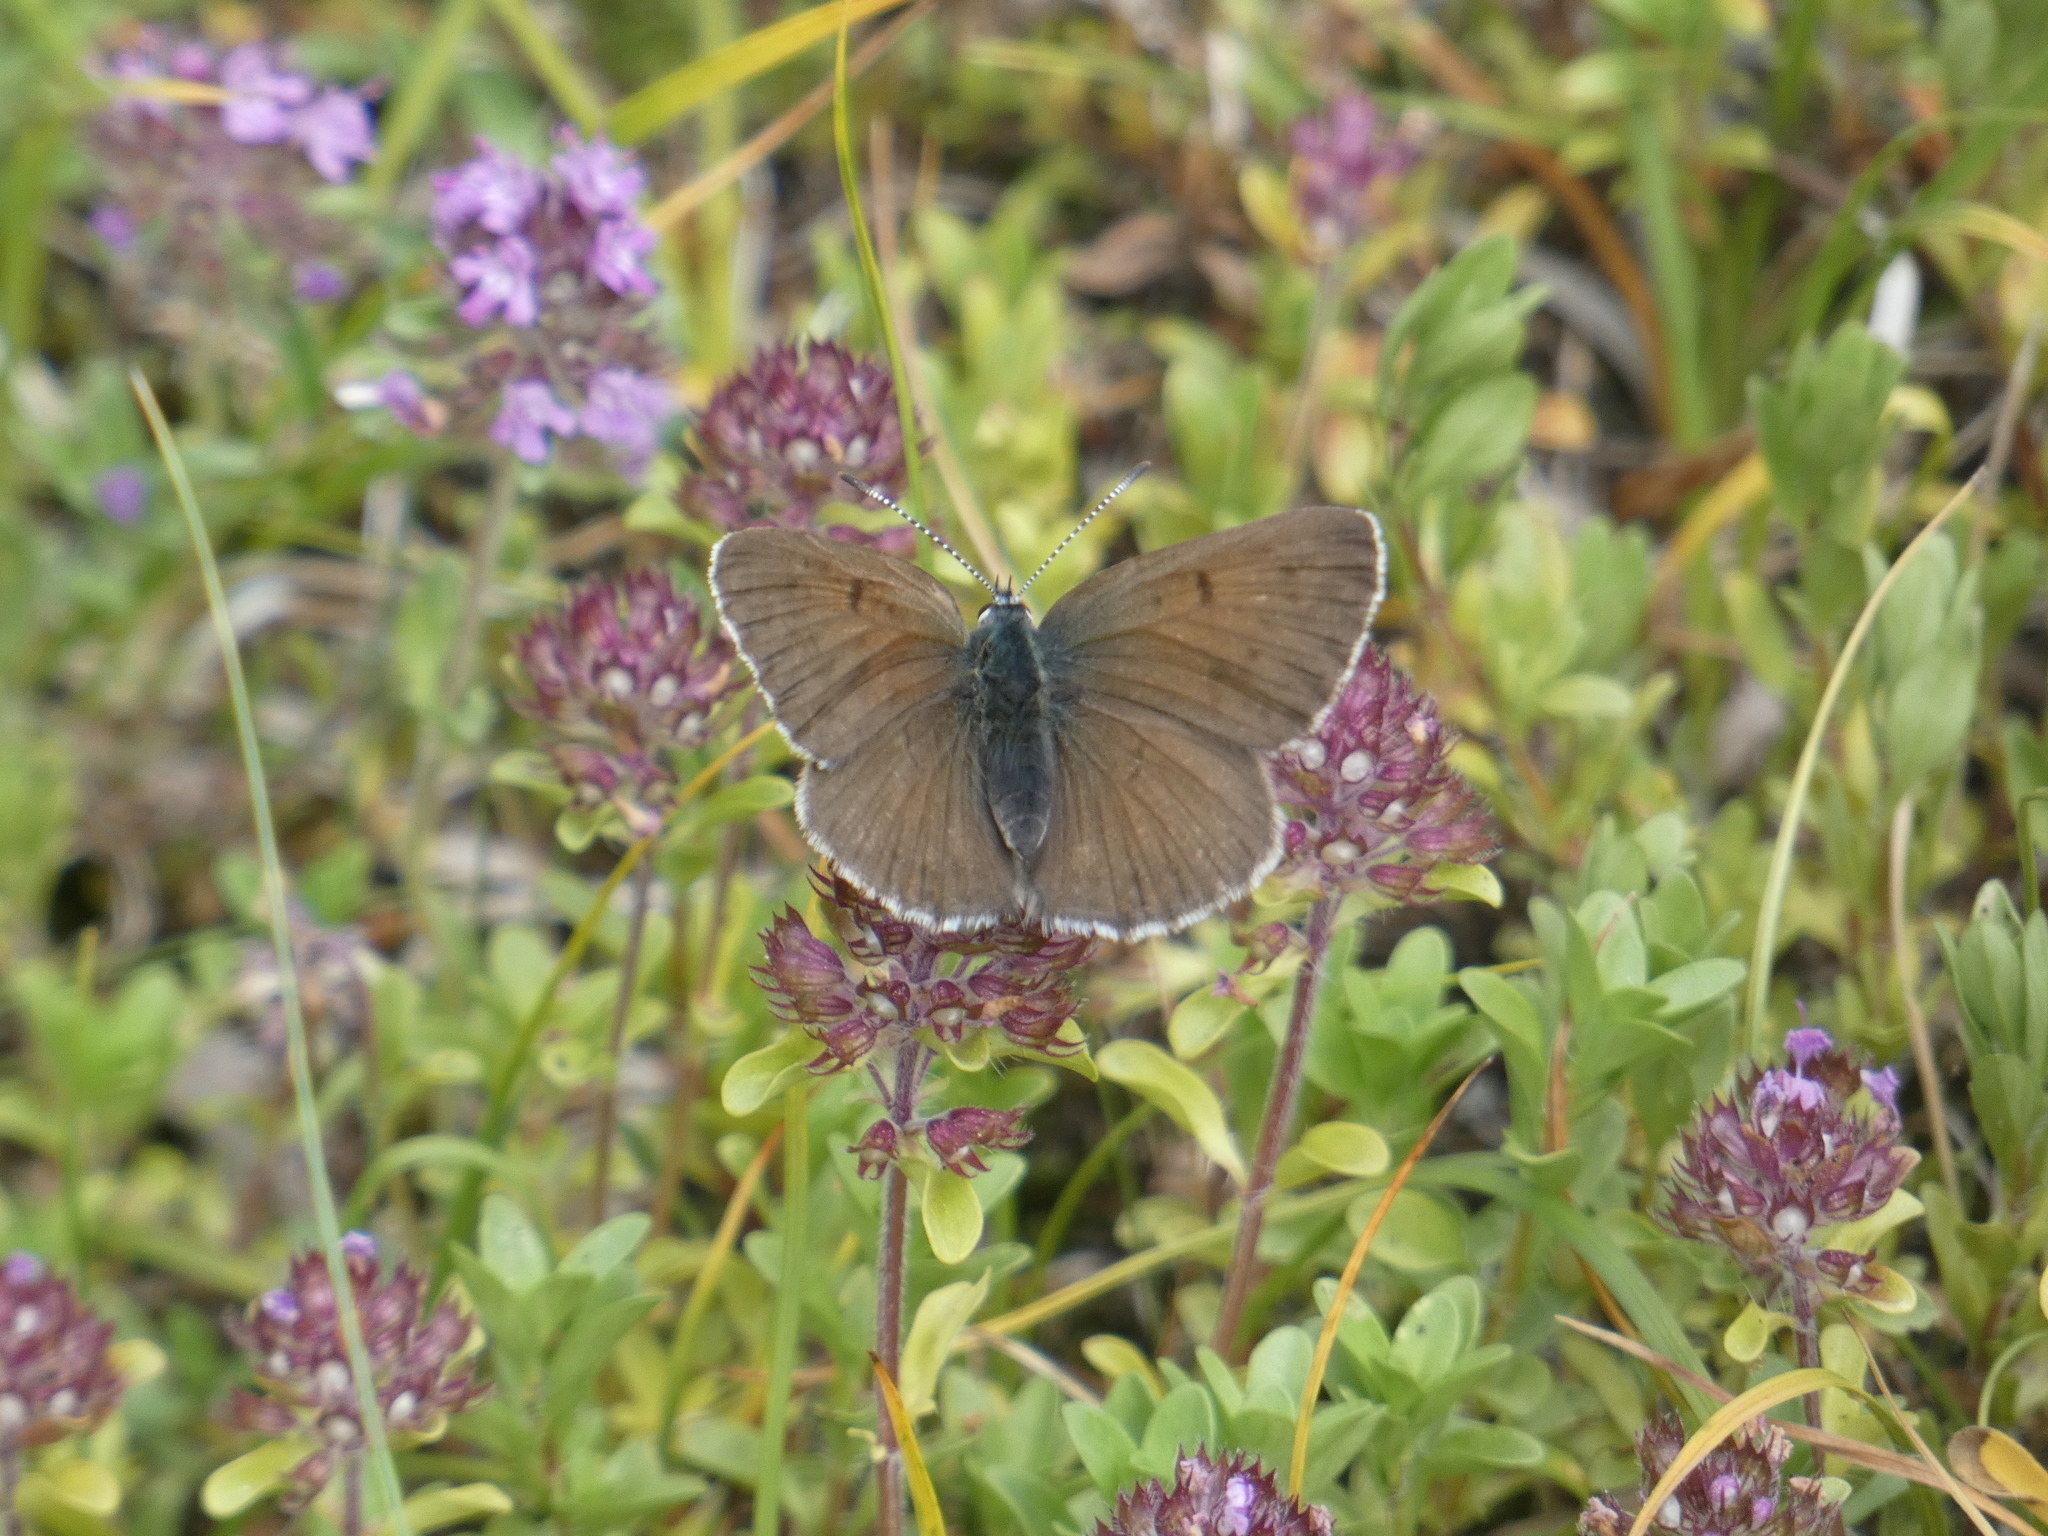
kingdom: Animalia
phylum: Arthropoda
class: Insecta
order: Lepidoptera
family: Lycaenidae
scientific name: Lycaenidae
